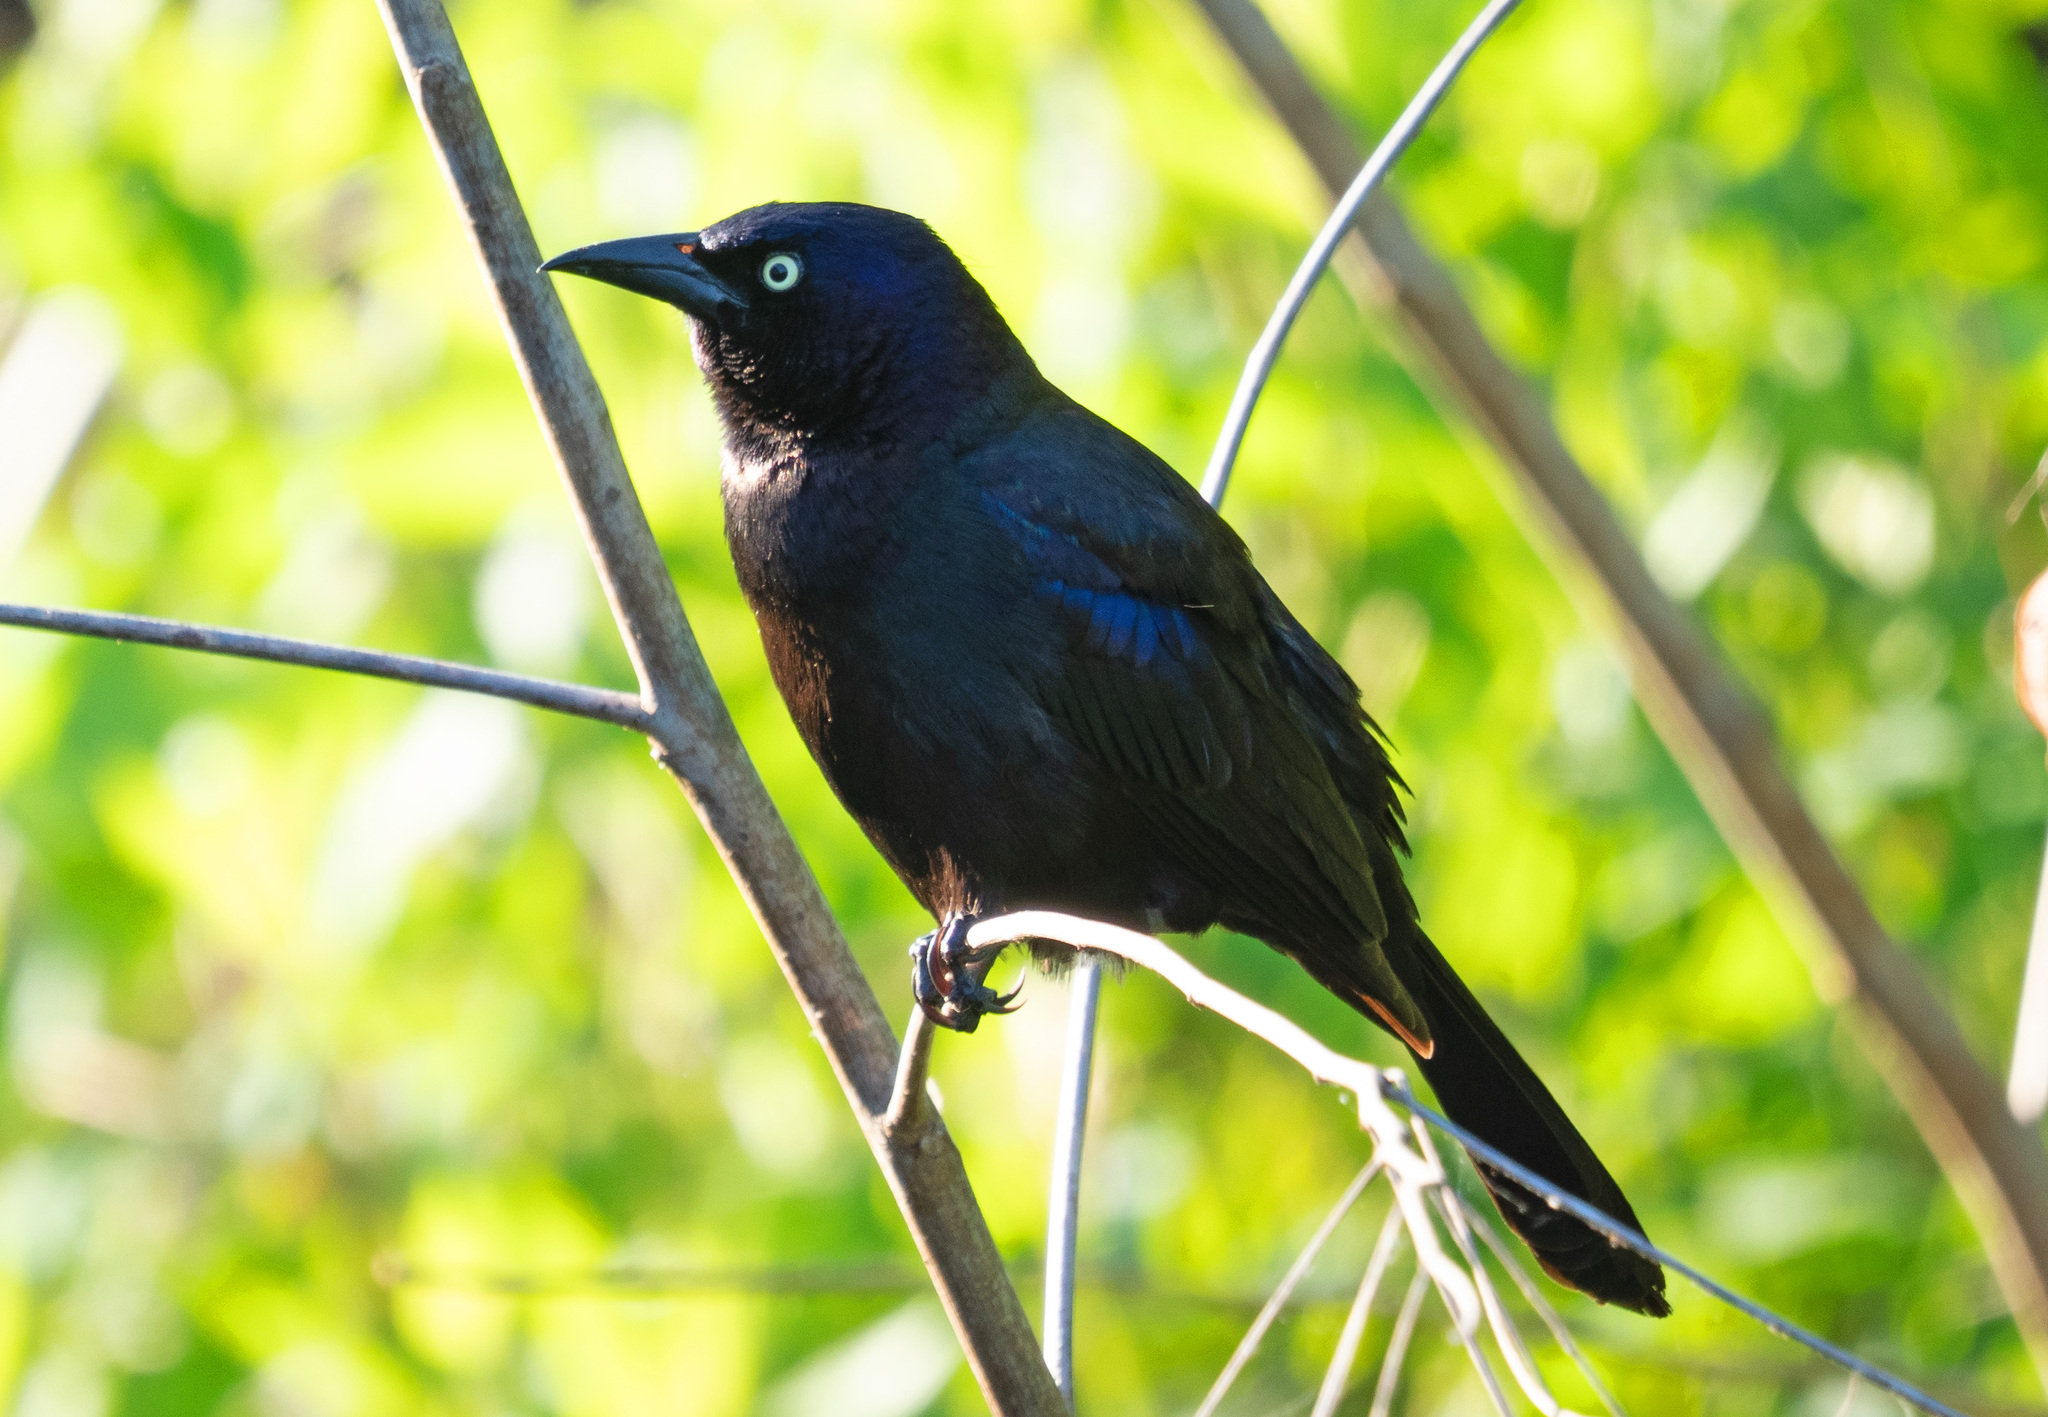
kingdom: Animalia
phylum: Chordata
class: Aves
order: Passeriformes
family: Icteridae
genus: Quiscalus
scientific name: Quiscalus quiscula
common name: Common grackle
